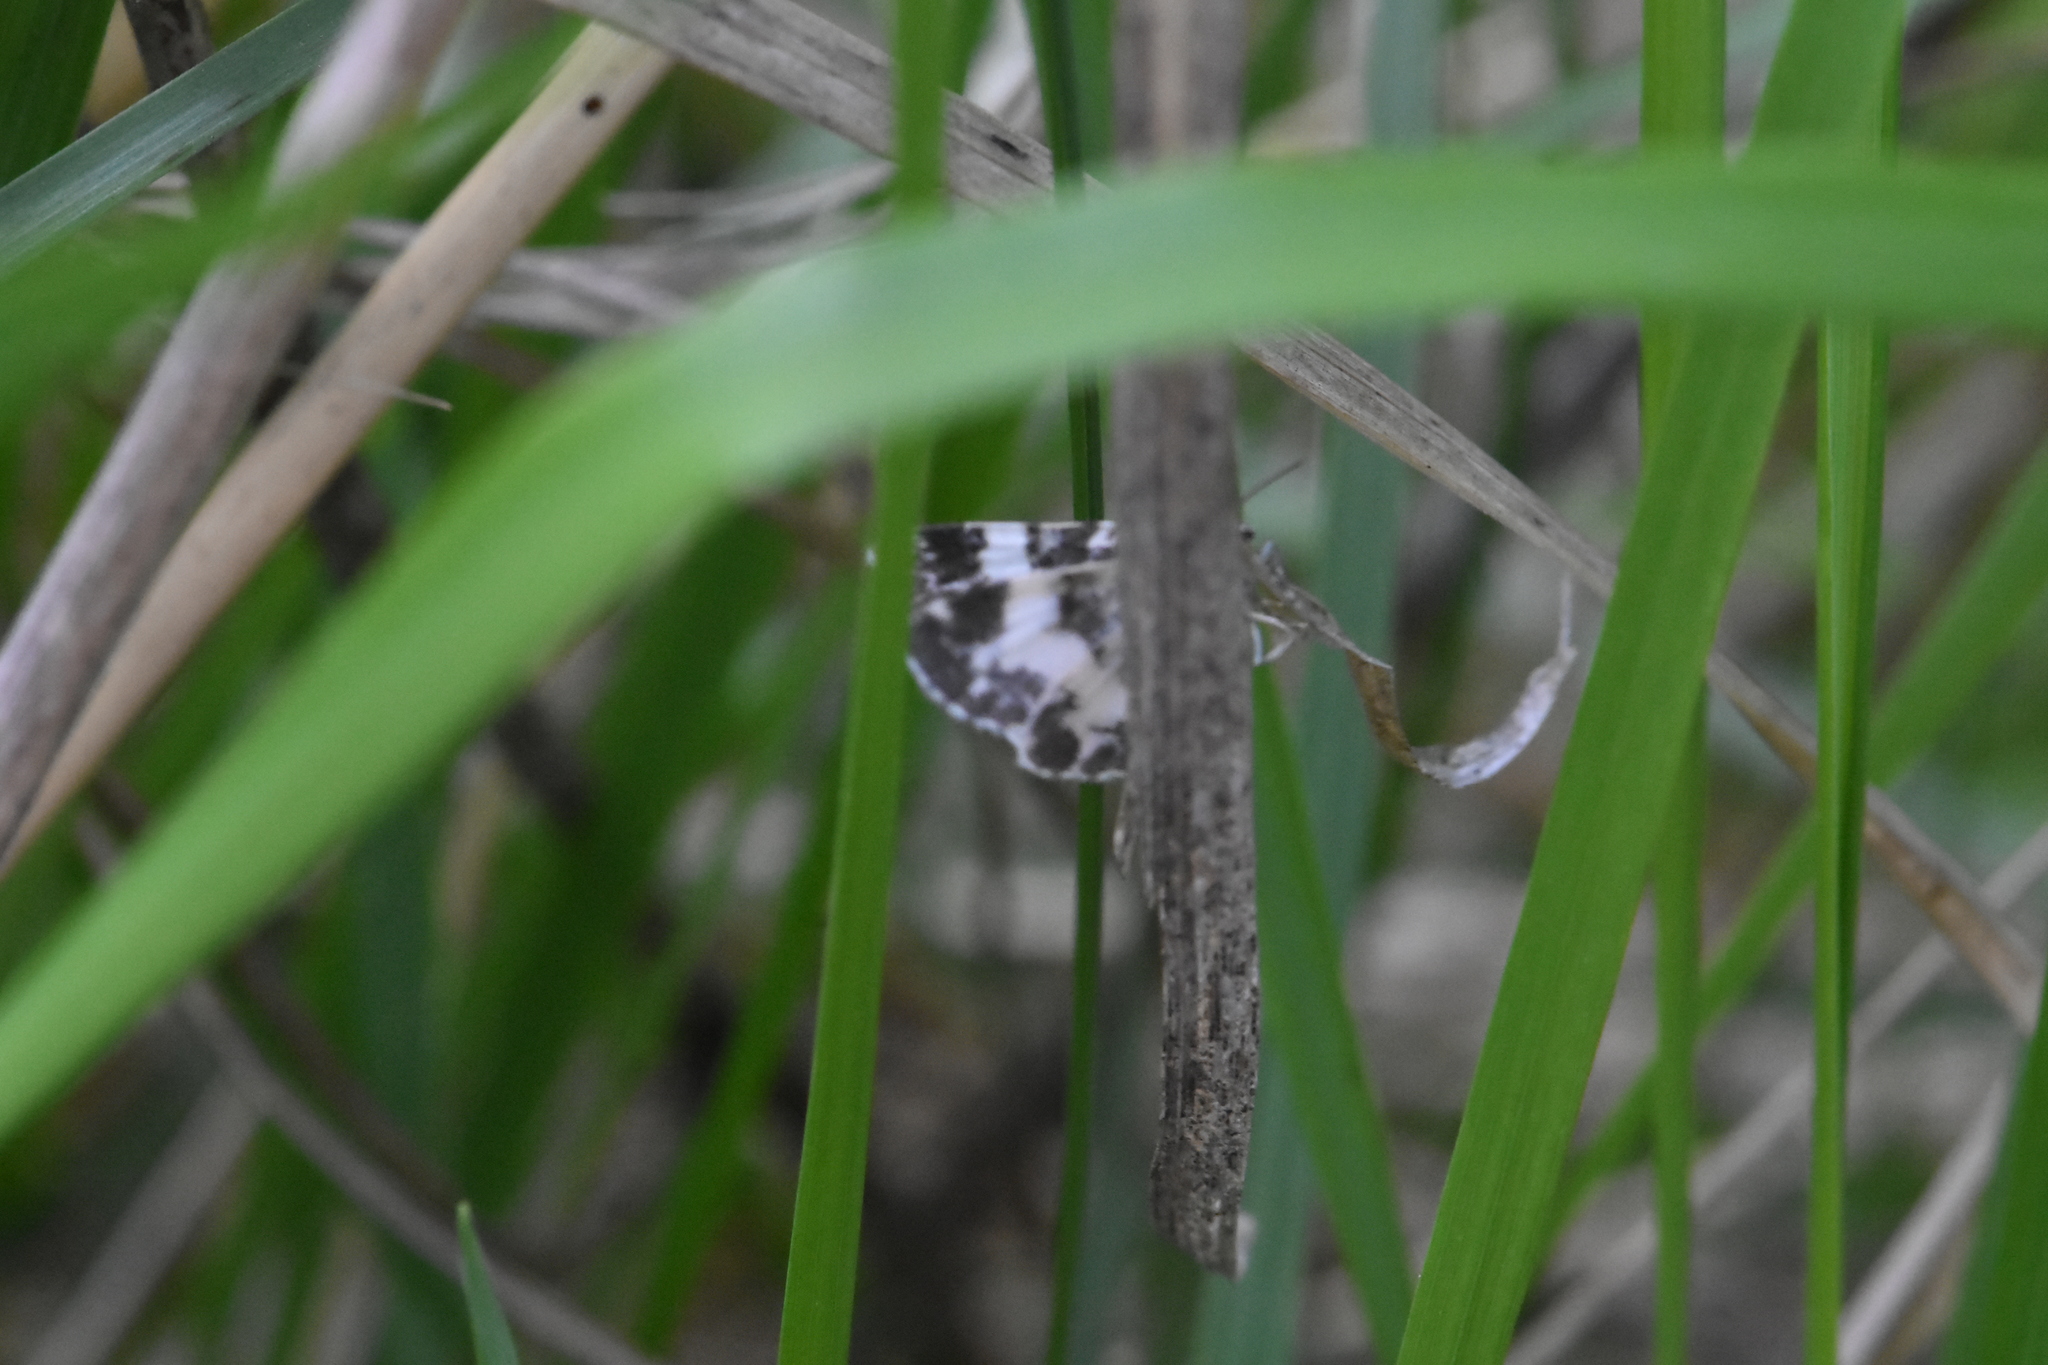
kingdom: Animalia
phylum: Arthropoda
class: Insecta
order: Lepidoptera
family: Geometridae
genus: Spargania
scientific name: Spargania luctuata
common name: White-banded carpet
